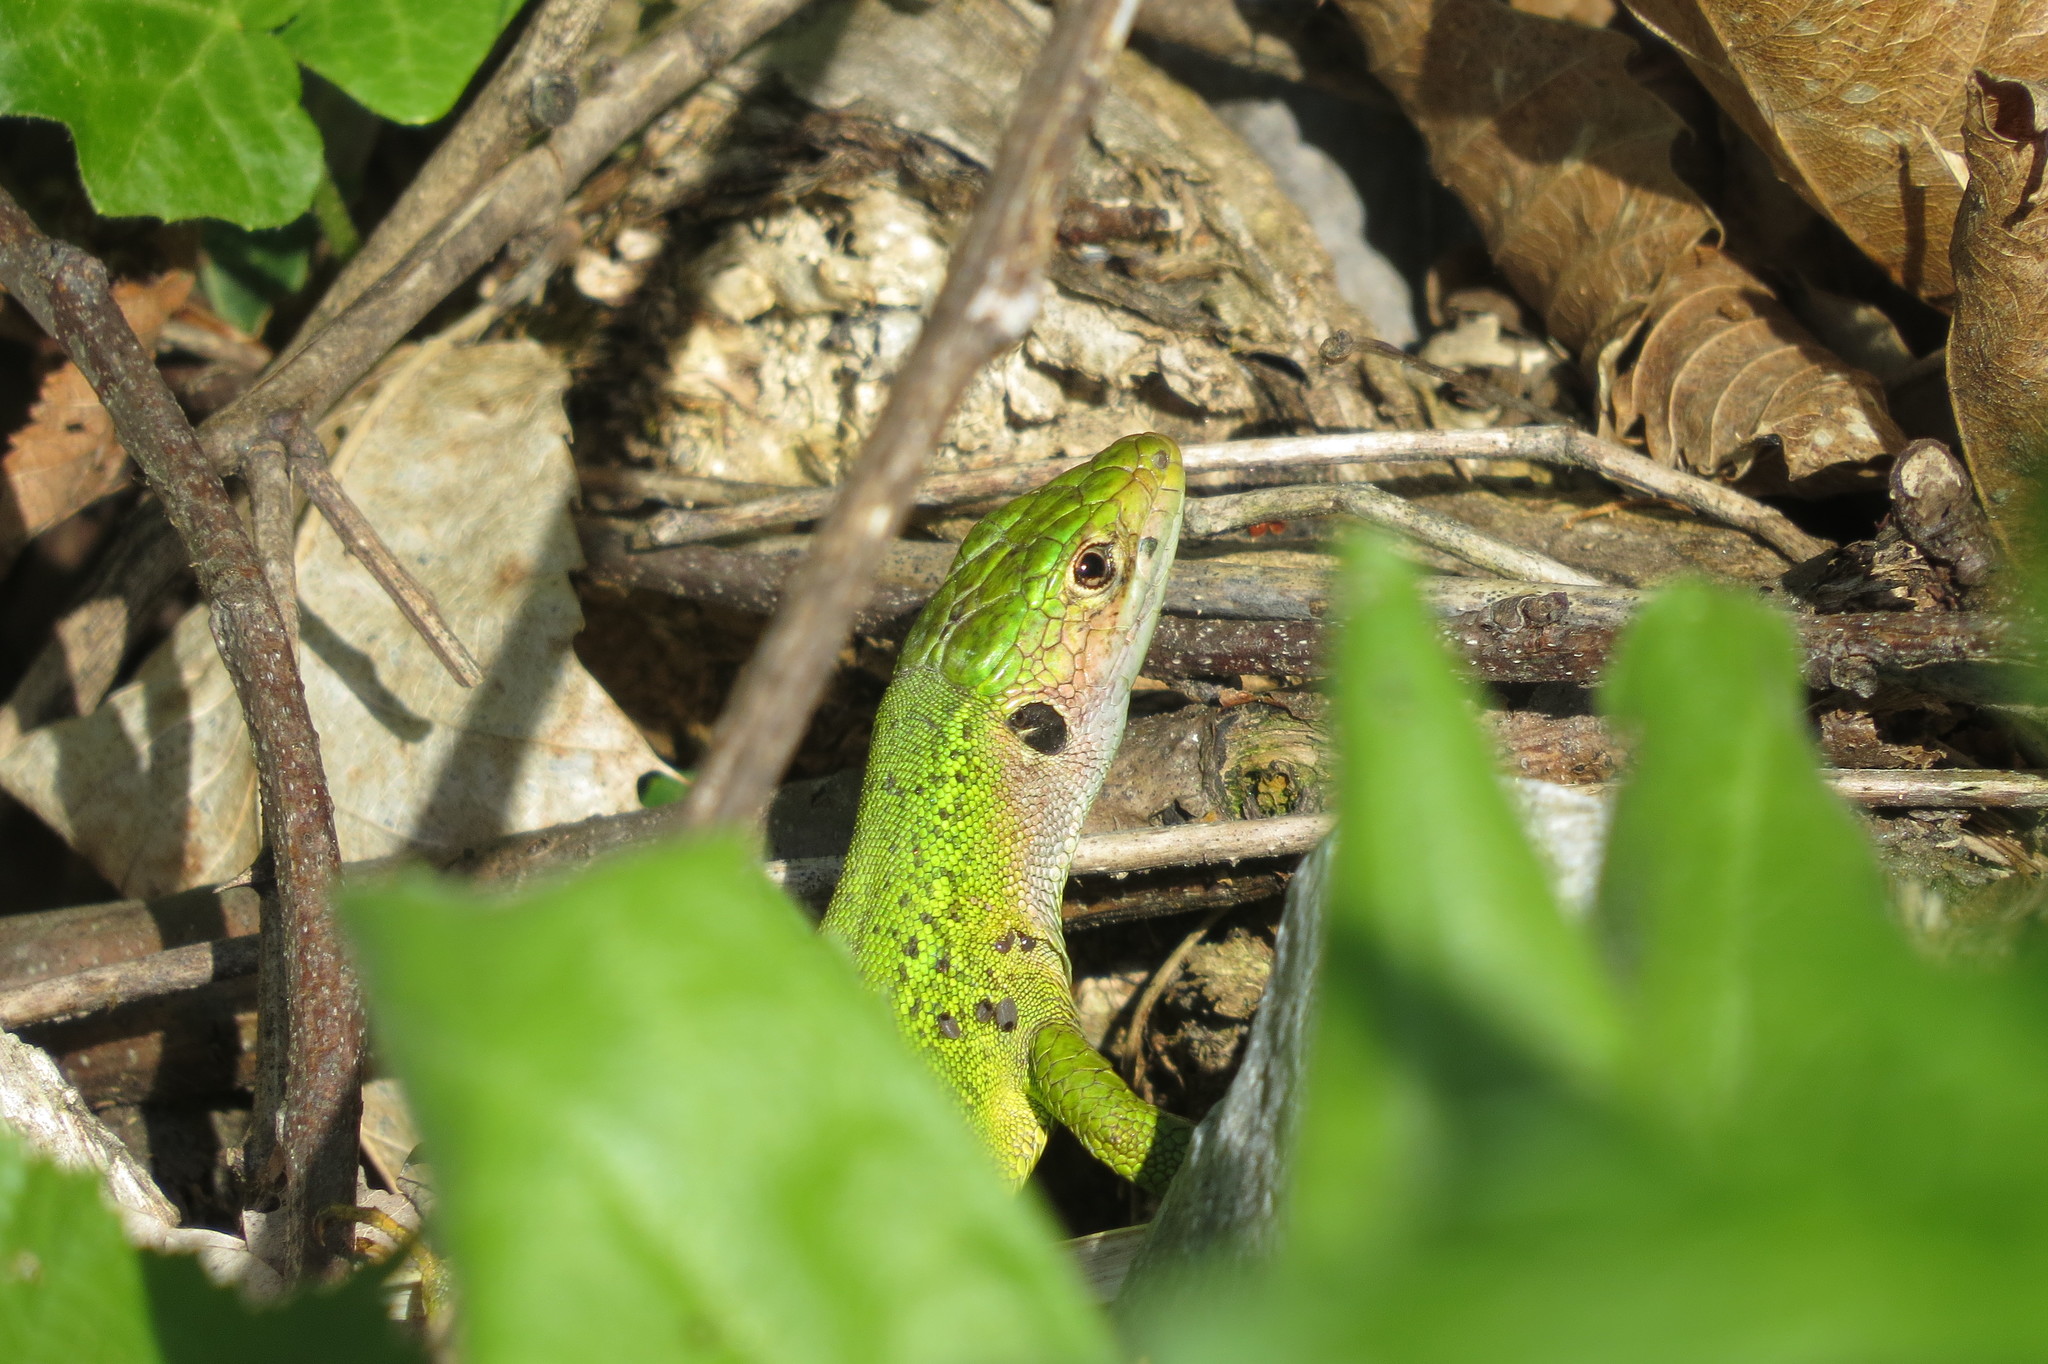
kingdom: Animalia
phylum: Chordata
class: Squamata
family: Lacertidae
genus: Lacerta
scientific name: Lacerta bilineata
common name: Western green lizard
